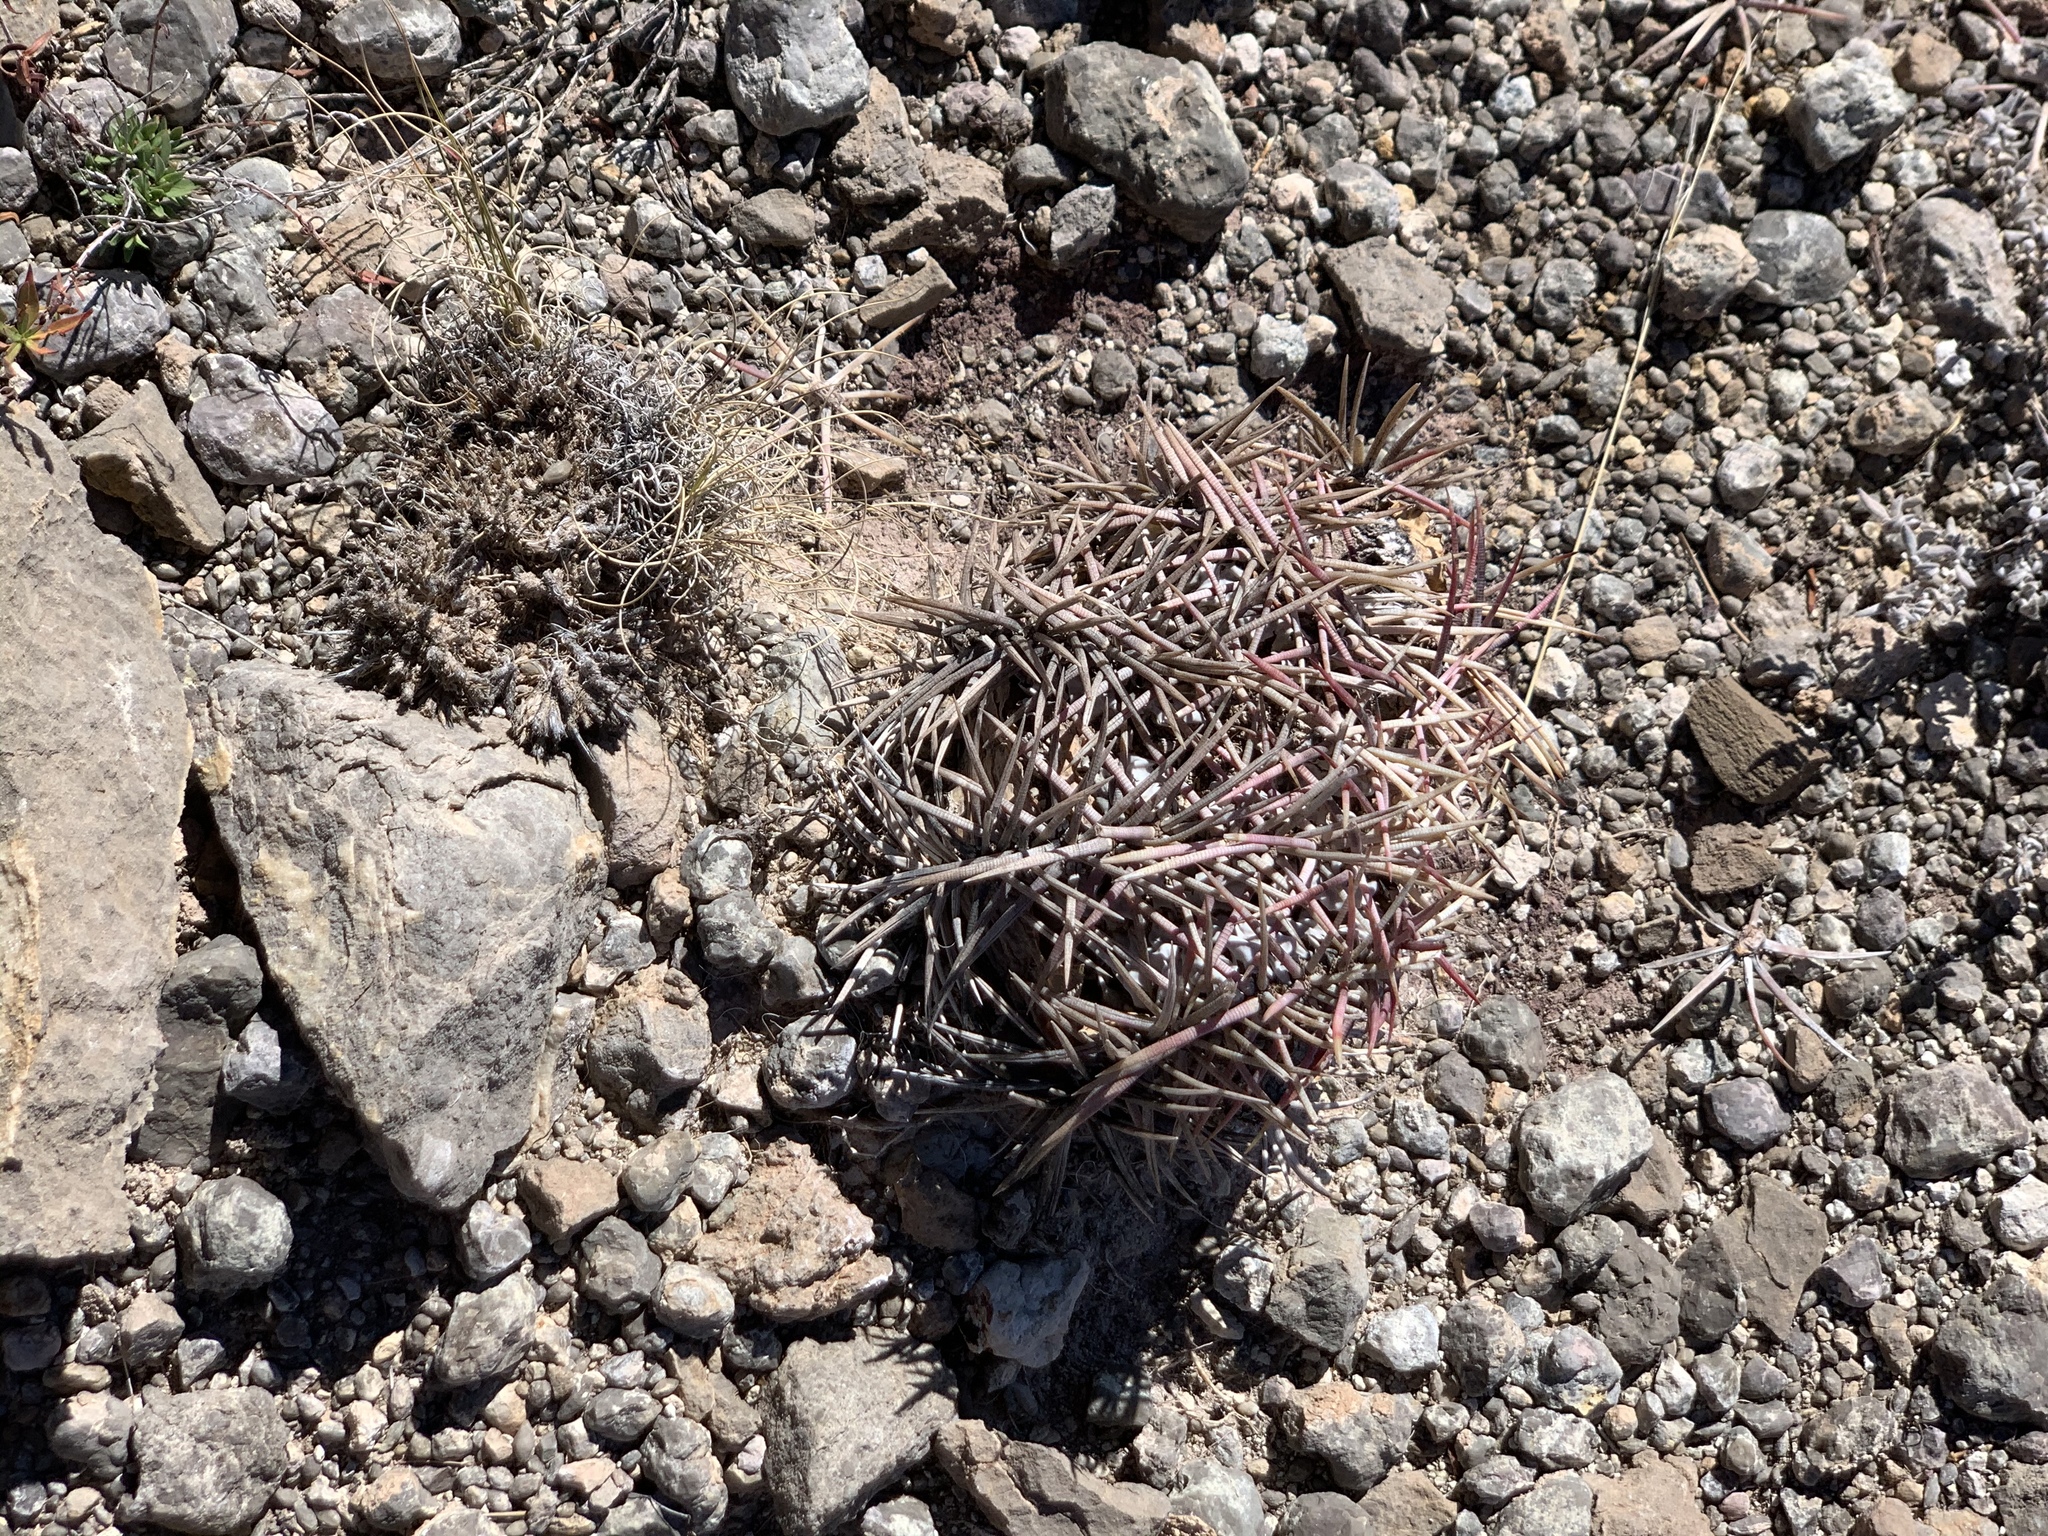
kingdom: Plantae
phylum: Tracheophyta
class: Magnoliopsida
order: Caryophyllales
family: Cactaceae
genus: Echinocactus
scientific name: Echinocactus horizonthalonius
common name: Devilshead
